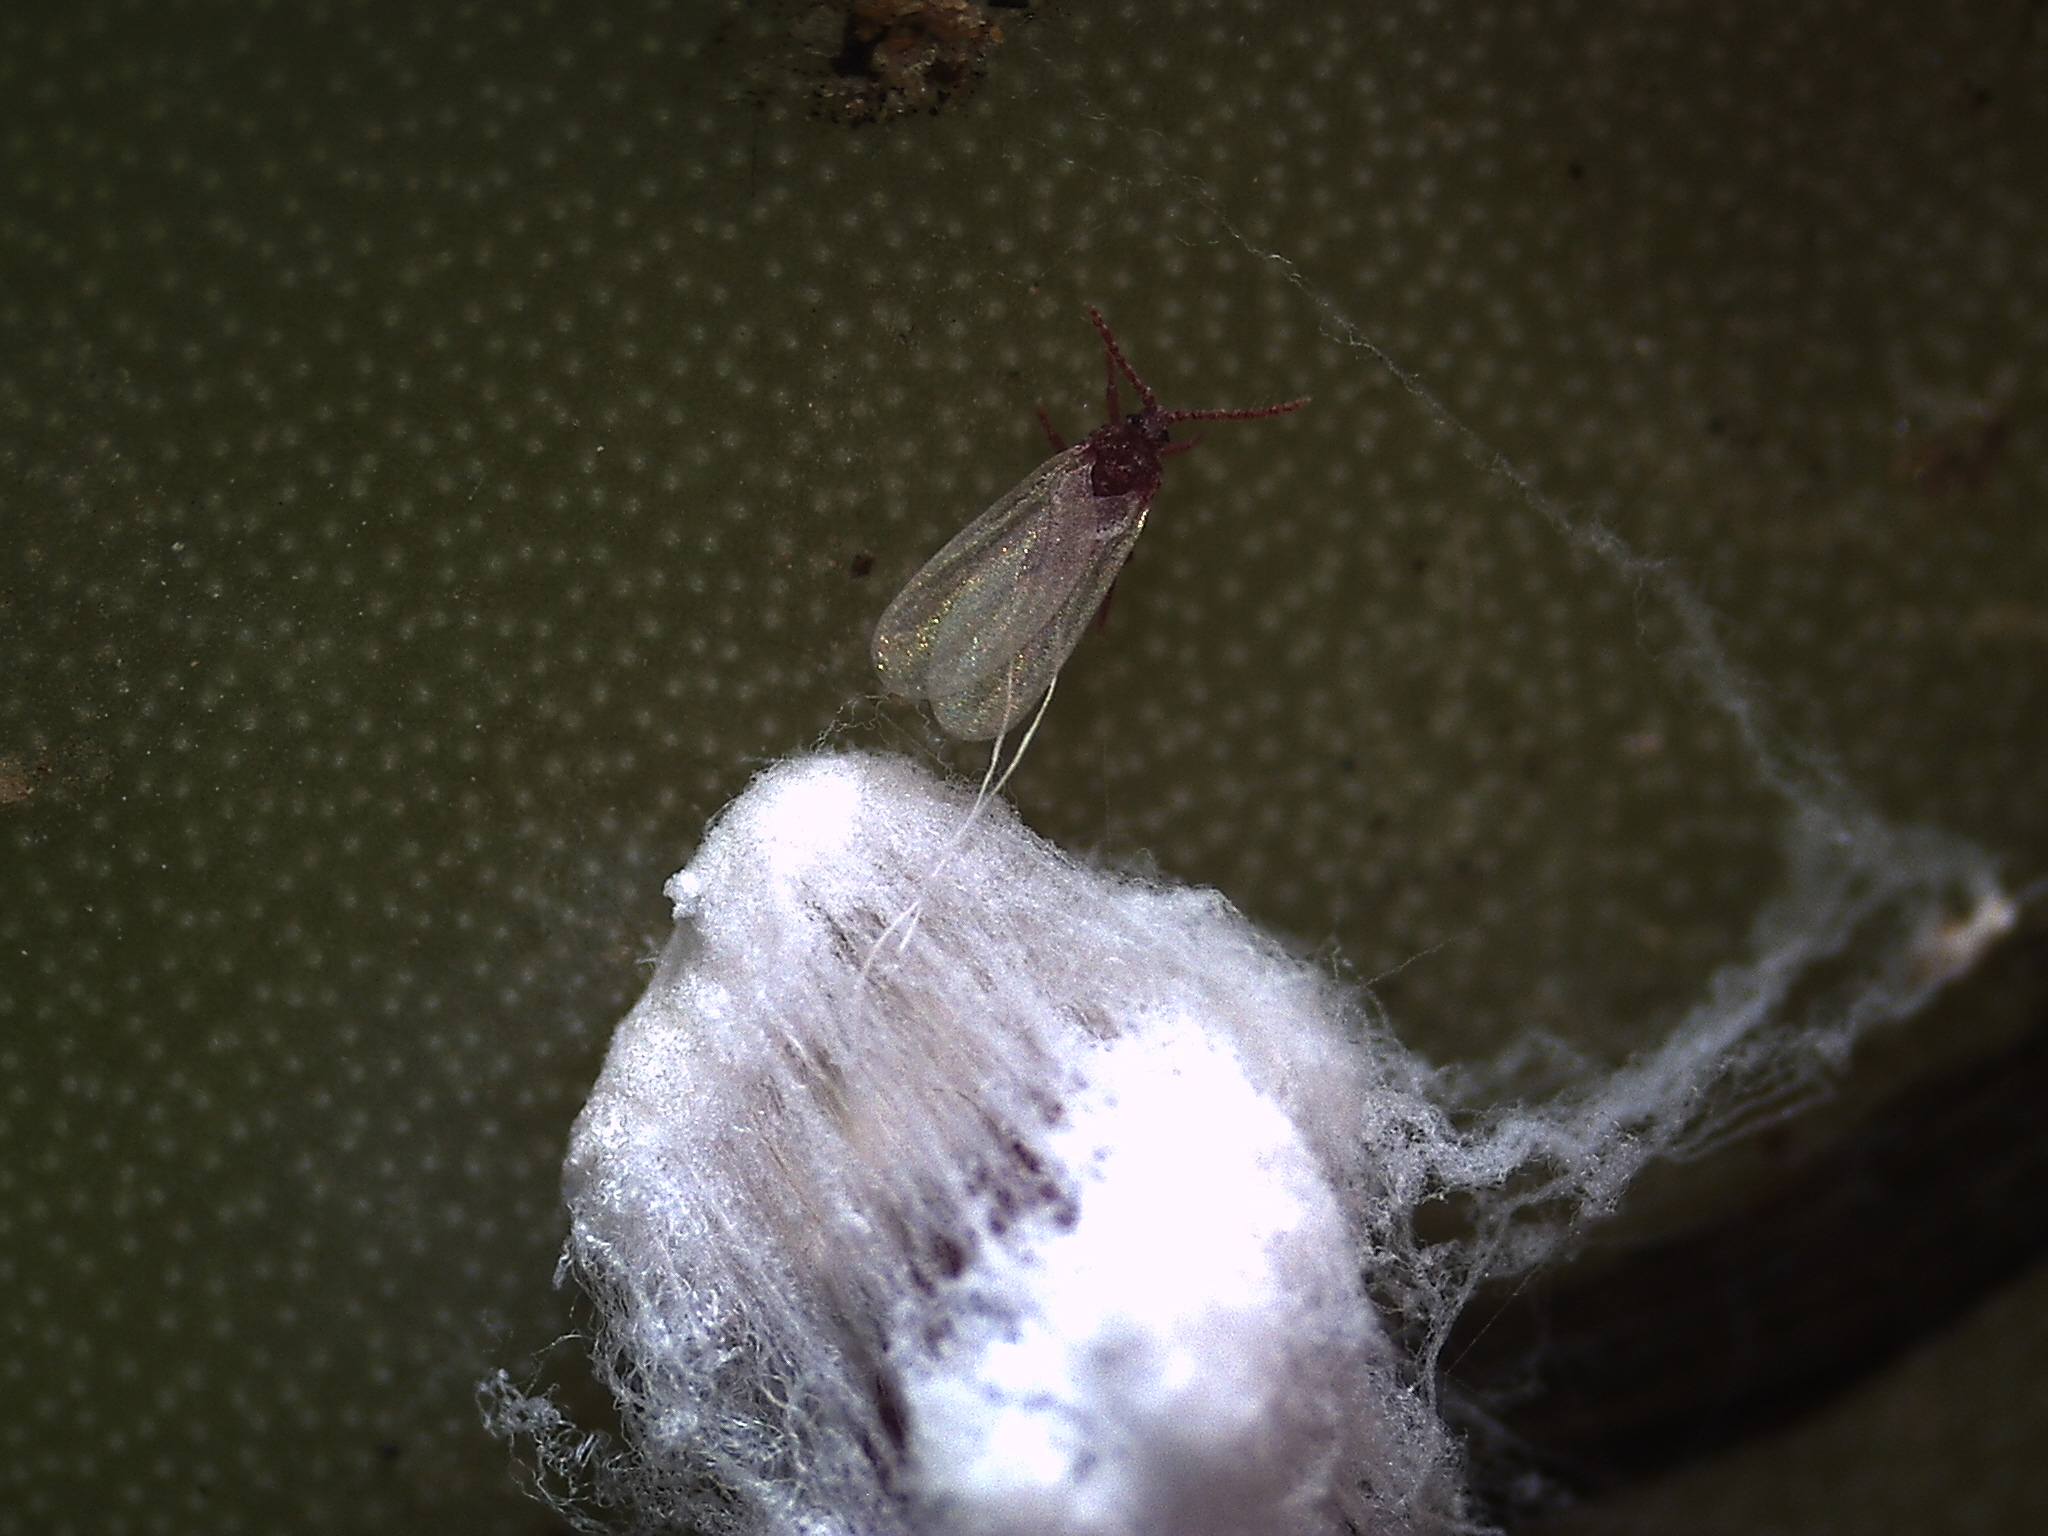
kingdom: Animalia
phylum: Arthropoda
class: Insecta
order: Hemiptera
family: Dactylopiidae
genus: Dactylopius
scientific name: Dactylopius opuntiae
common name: Opuntia cochineal scale
